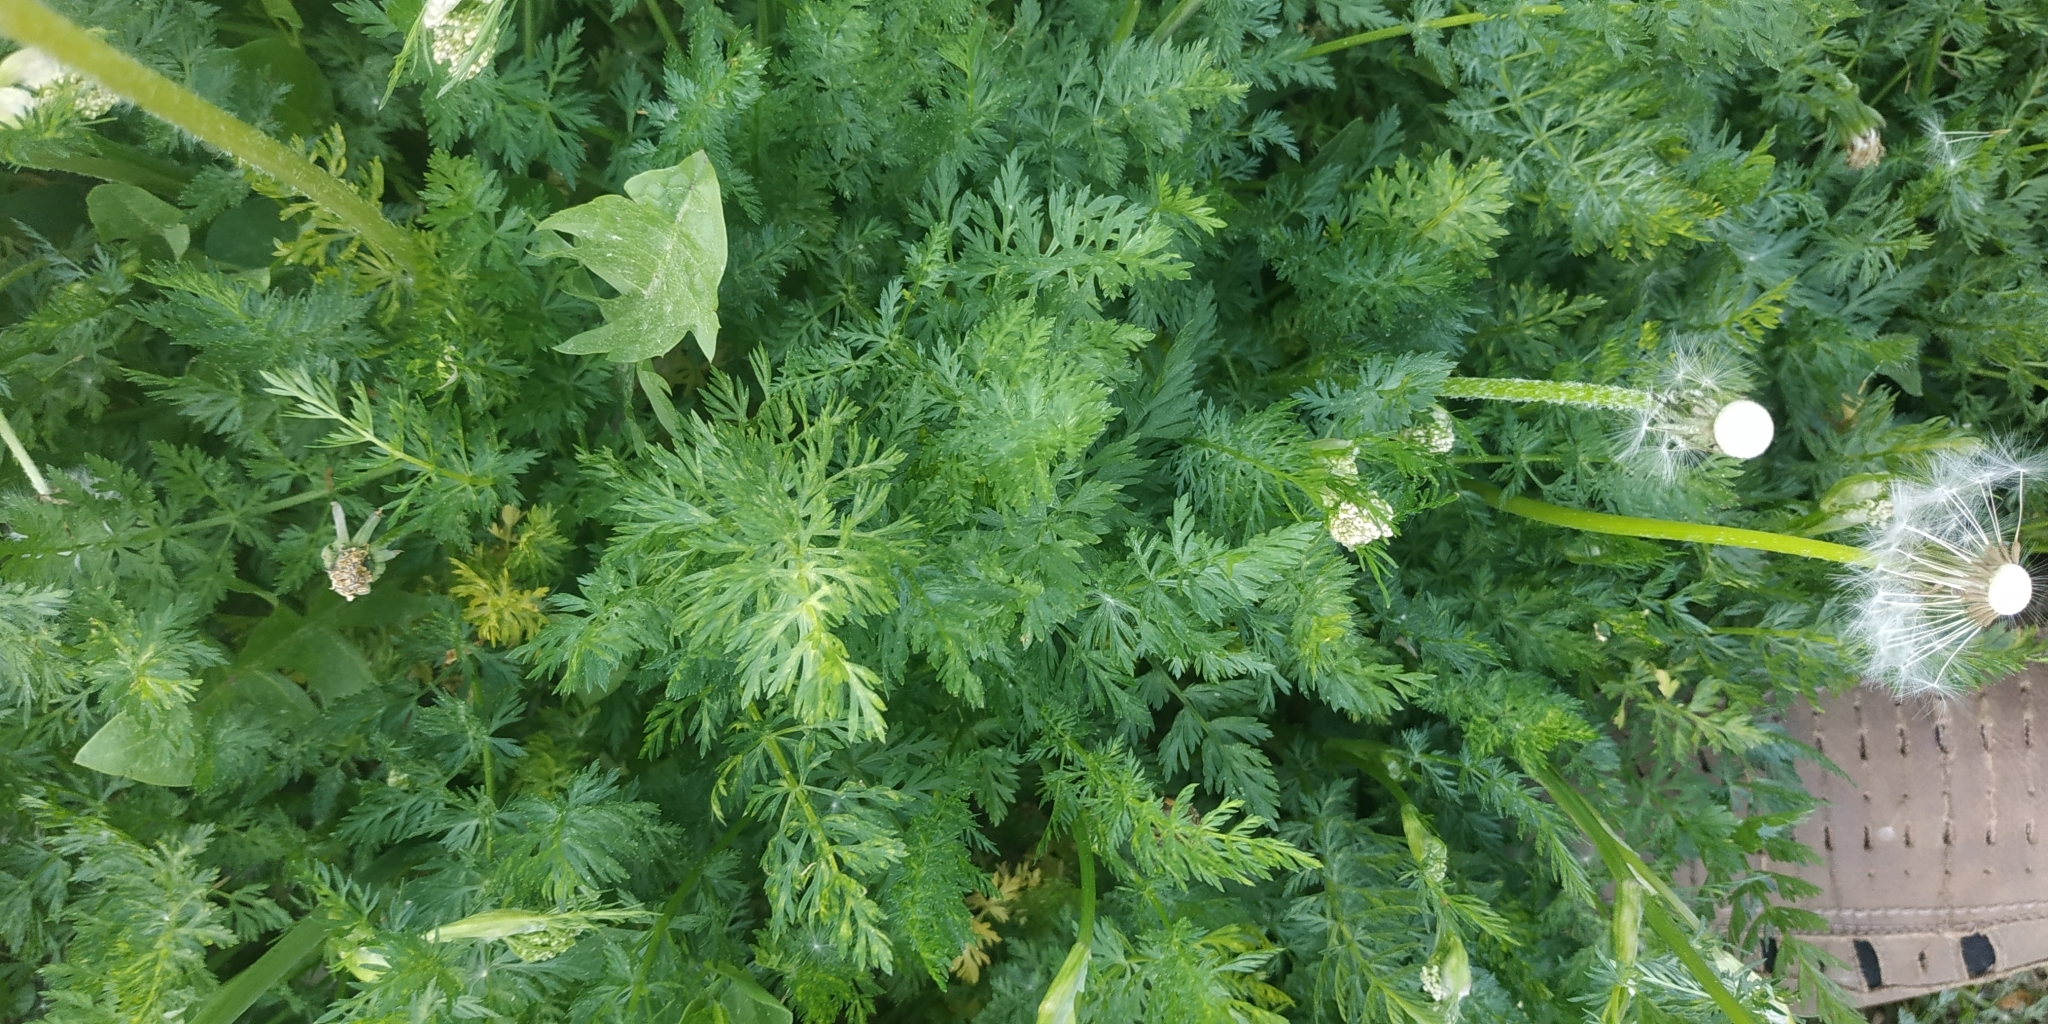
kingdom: Plantae
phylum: Tracheophyta
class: Magnoliopsida
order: Apiales
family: Apiaceae
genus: Carum
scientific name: Carum carvi
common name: Caraway
